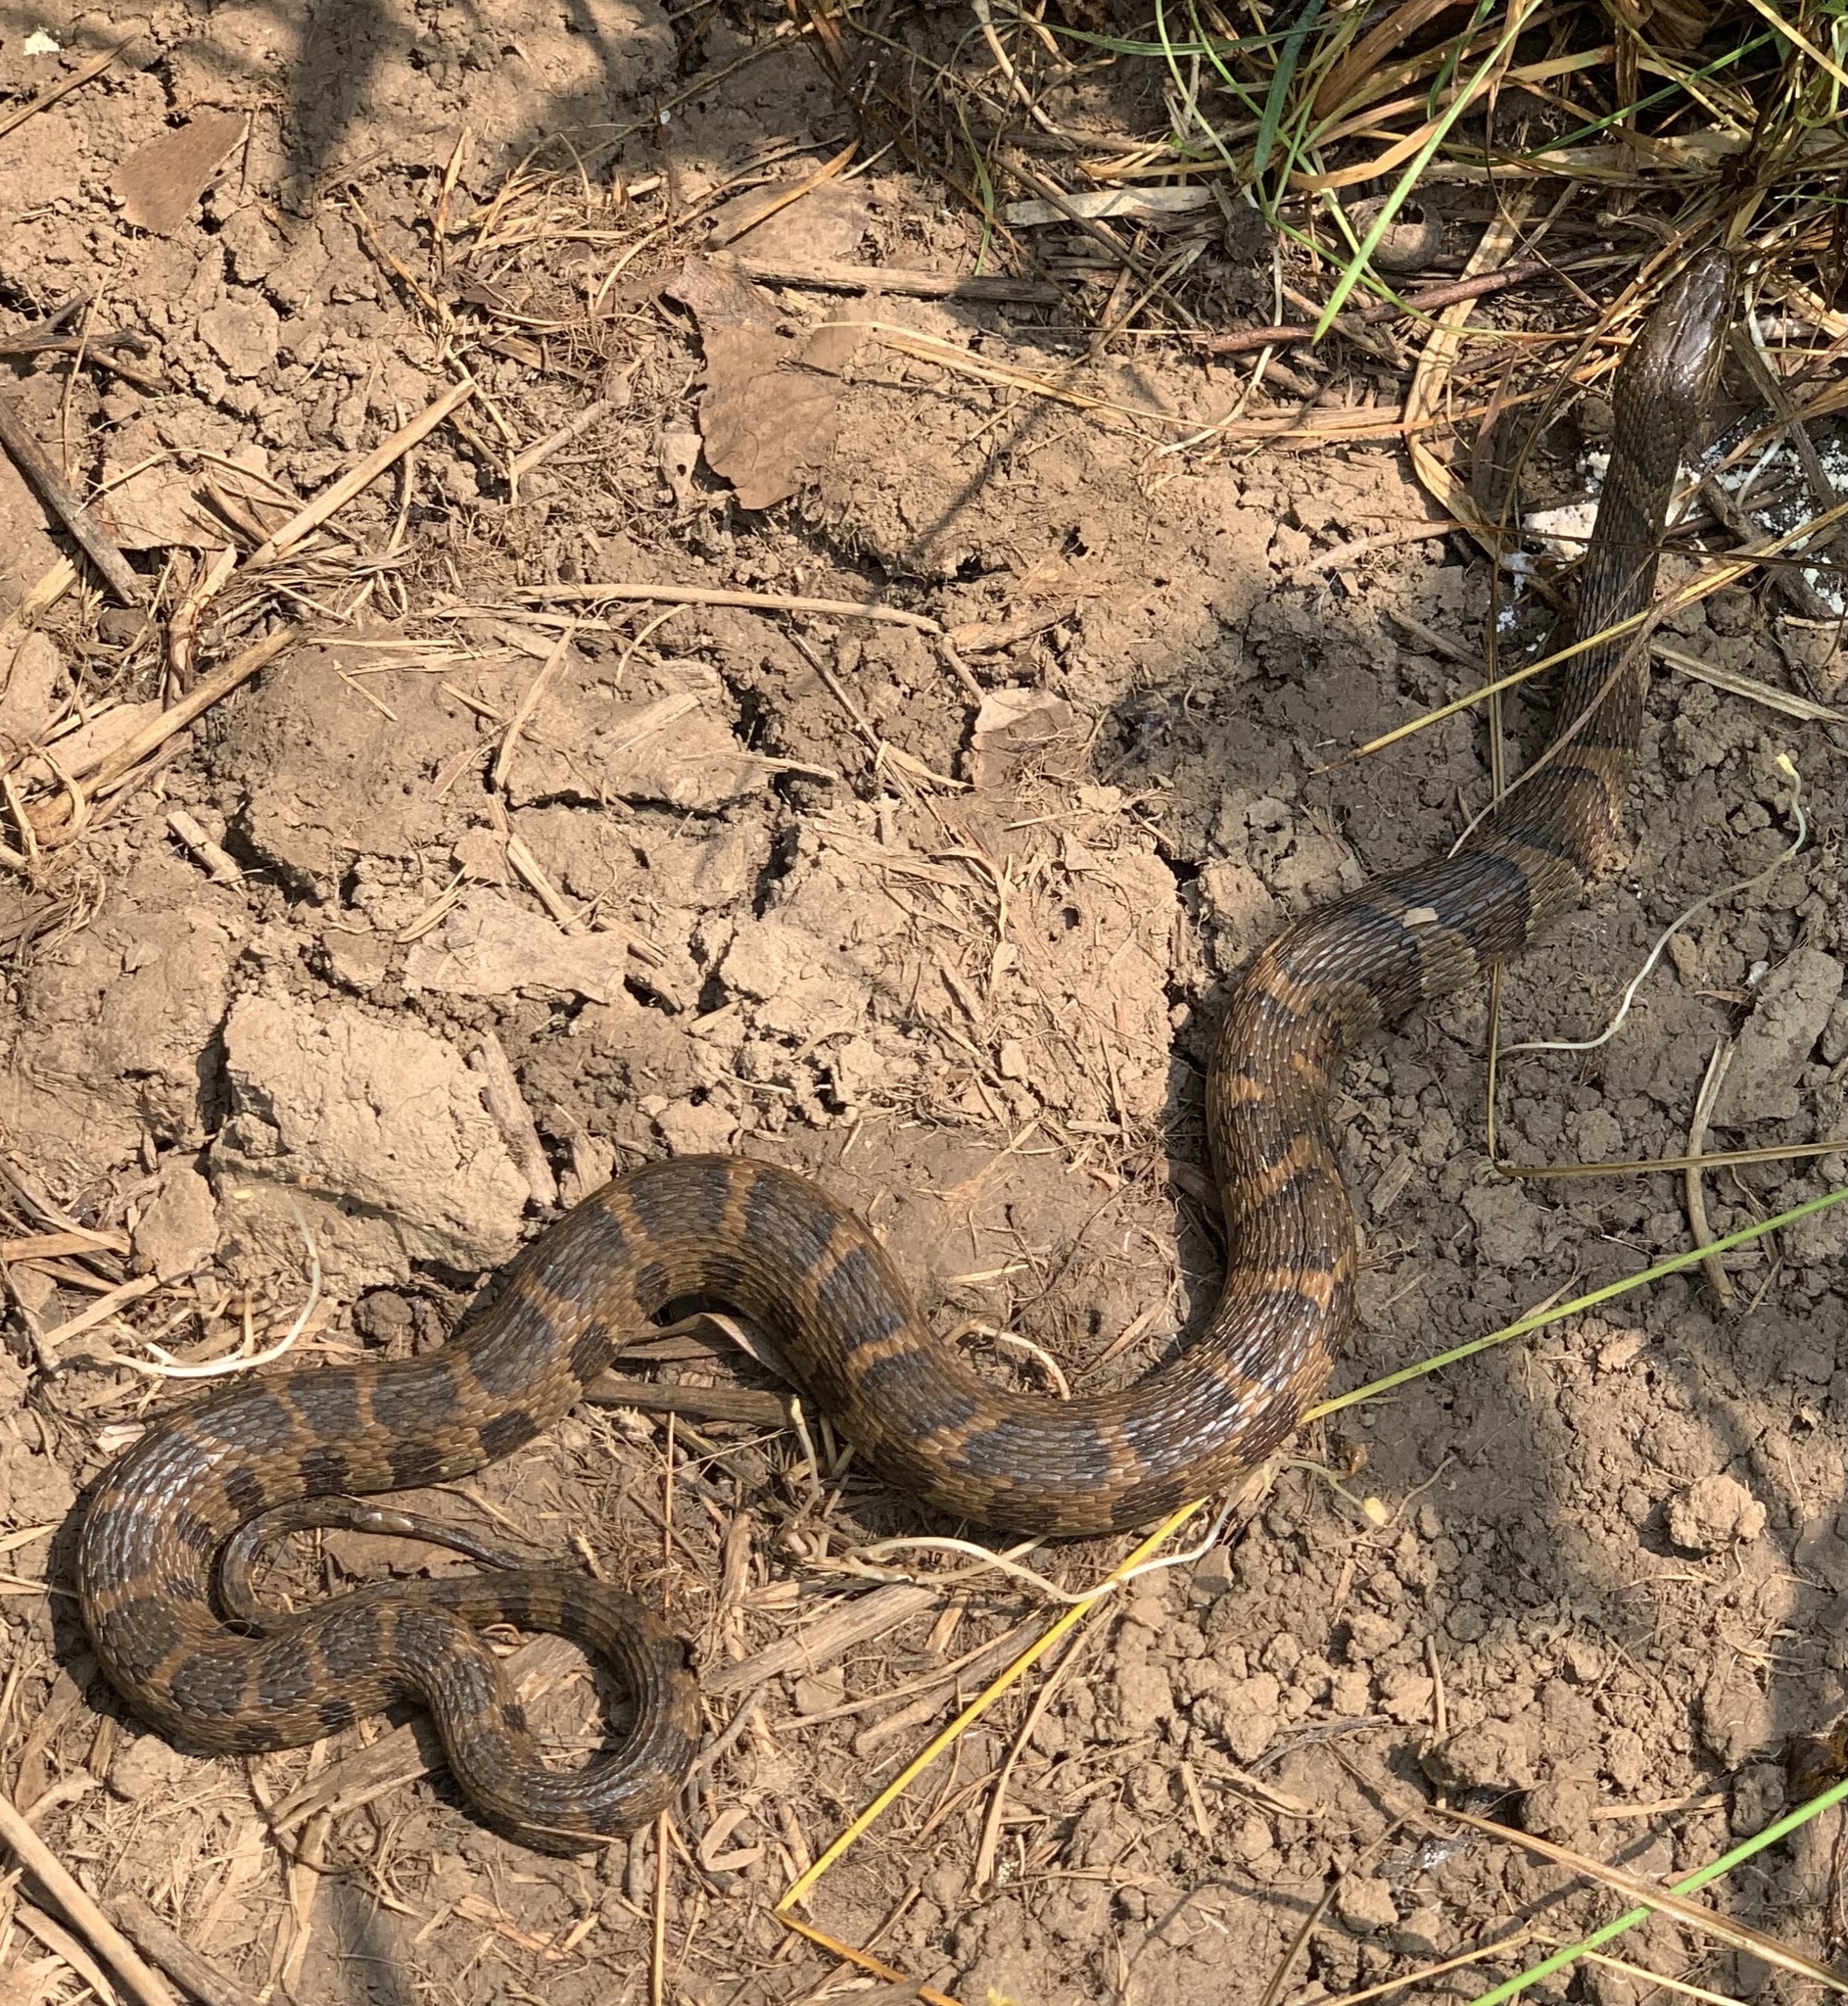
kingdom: Animalia
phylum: Chordata
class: Squamata
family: Colubridae
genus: Nerodia
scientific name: Nerodia sipedon
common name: Northern water snake
